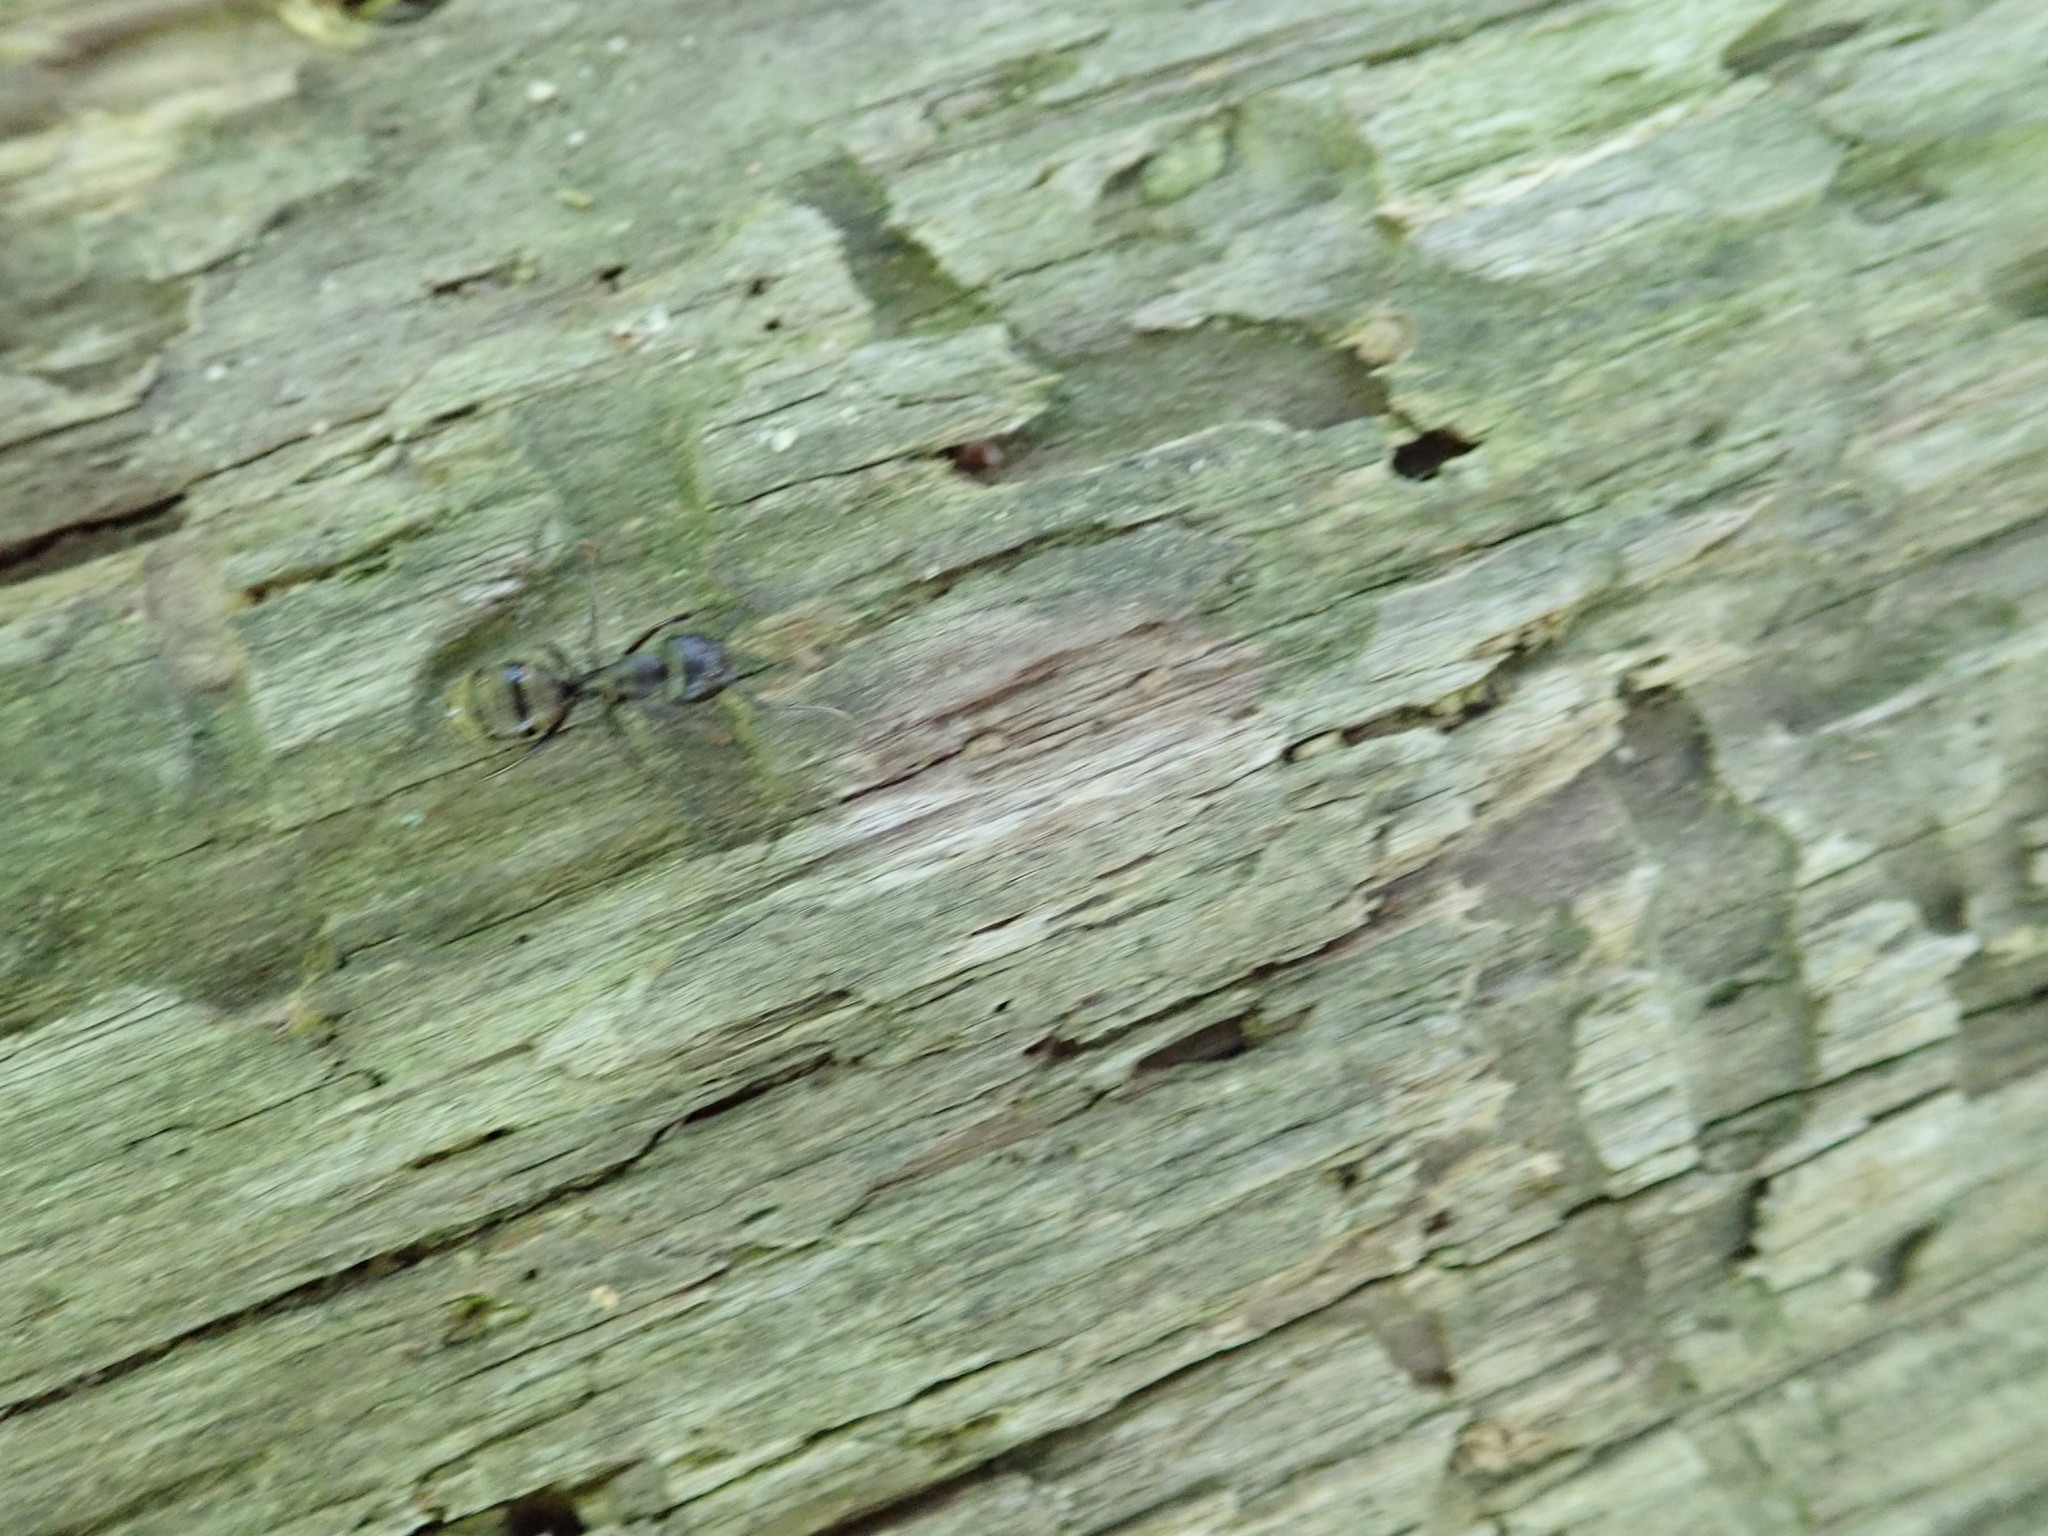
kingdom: Animalia
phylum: Arthropoda
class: Insecta
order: Hymenoptera
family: Formicidae
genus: Camponotus
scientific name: Camponotus pennsylvanicus
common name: Black carpenter ant
